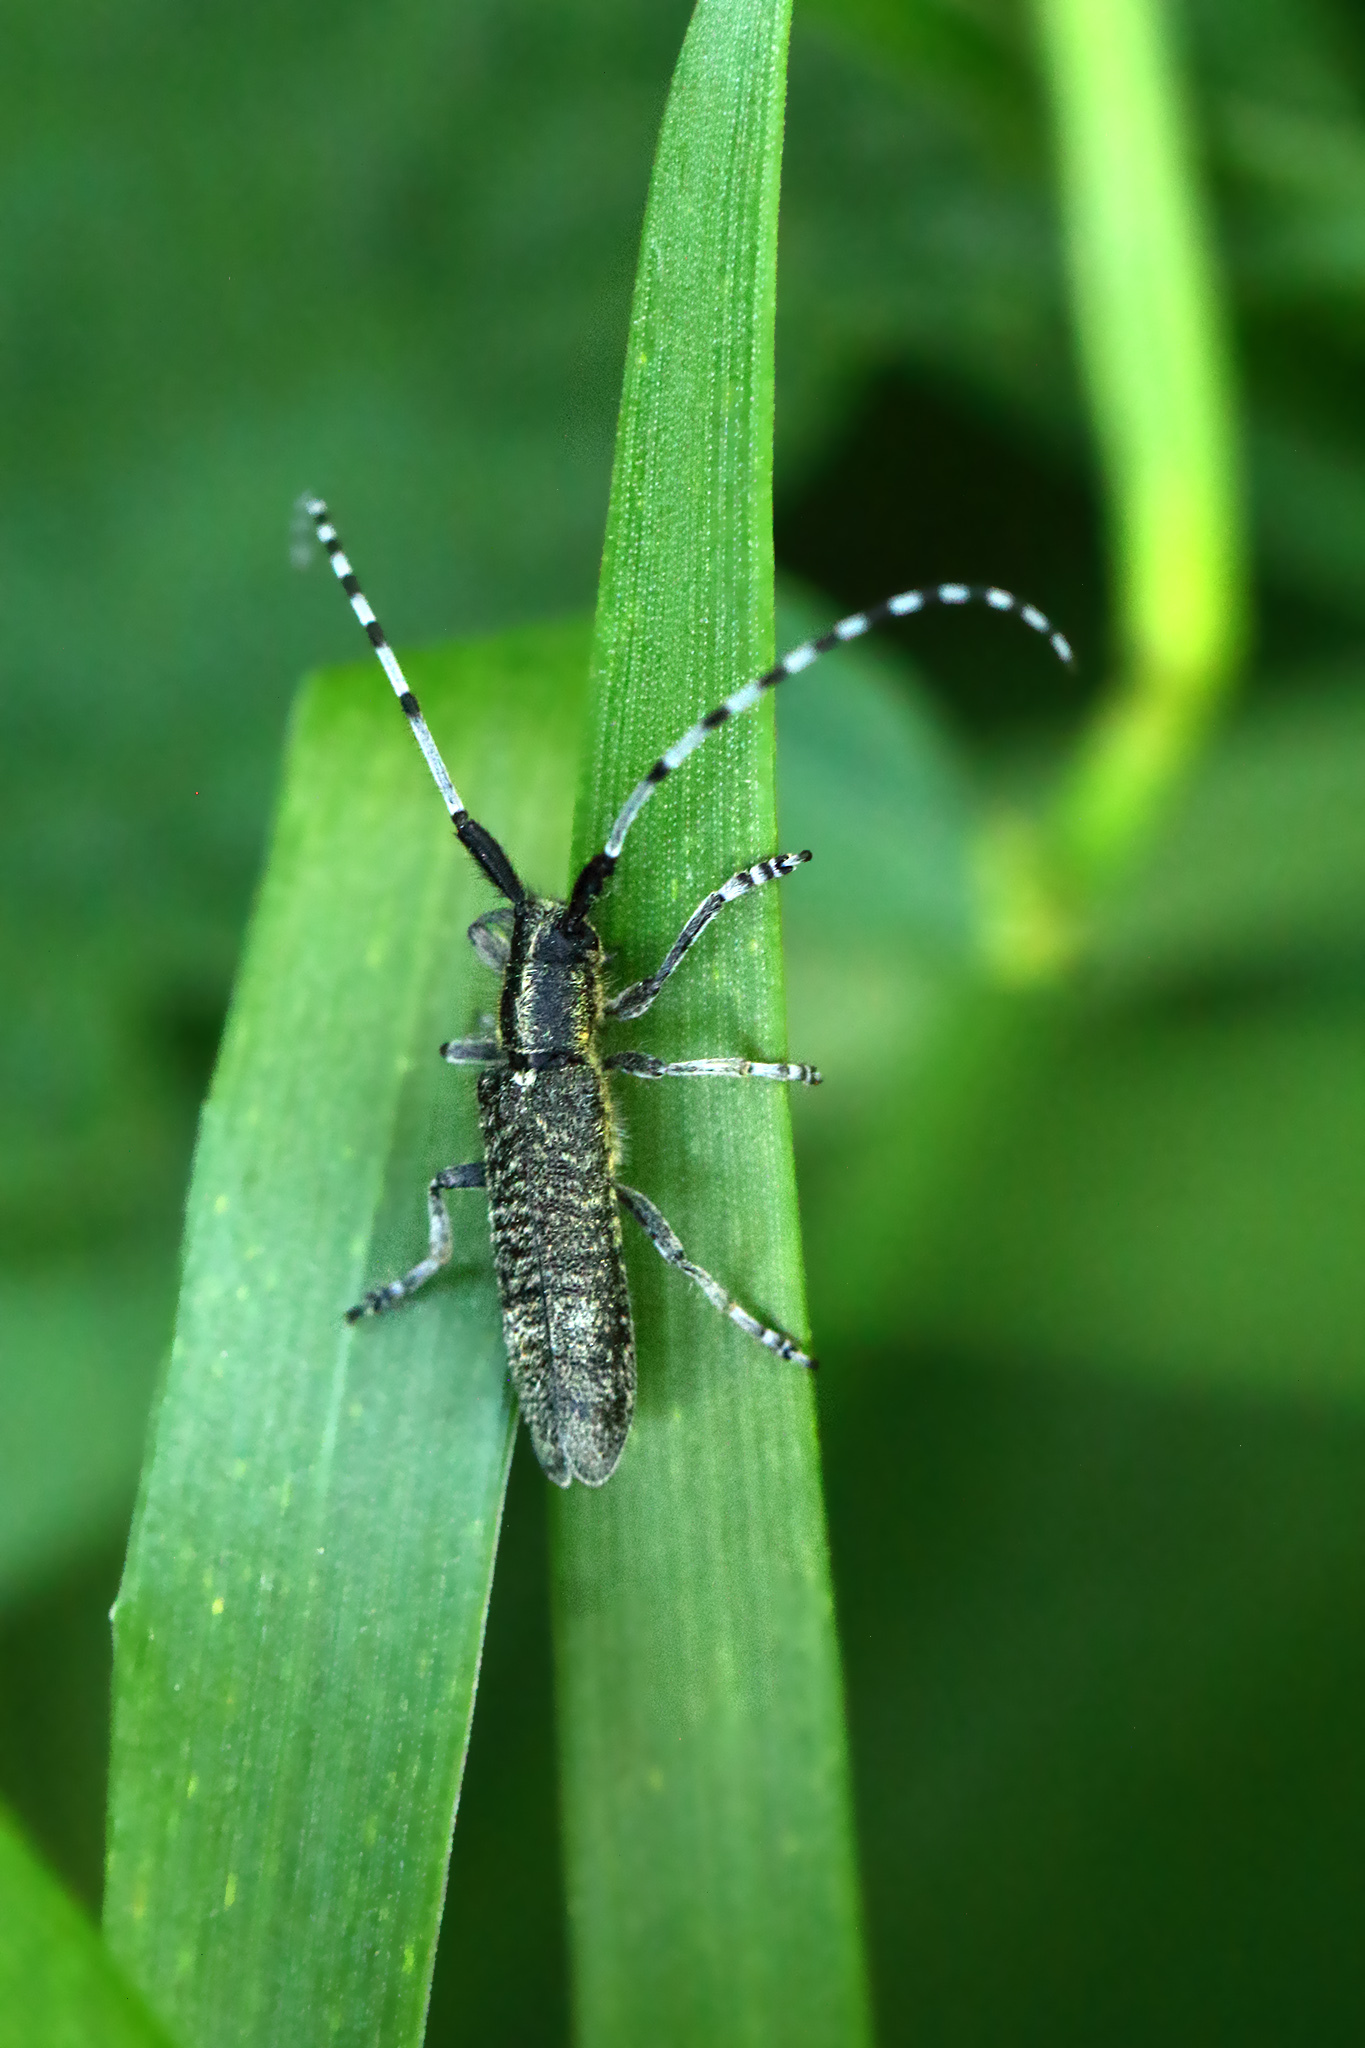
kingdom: Animalia
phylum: Arthropoda
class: Insecta
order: Coleoptera
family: Cerambycidae
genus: Agapanthia
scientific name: Agapanthia villosoviridescens
